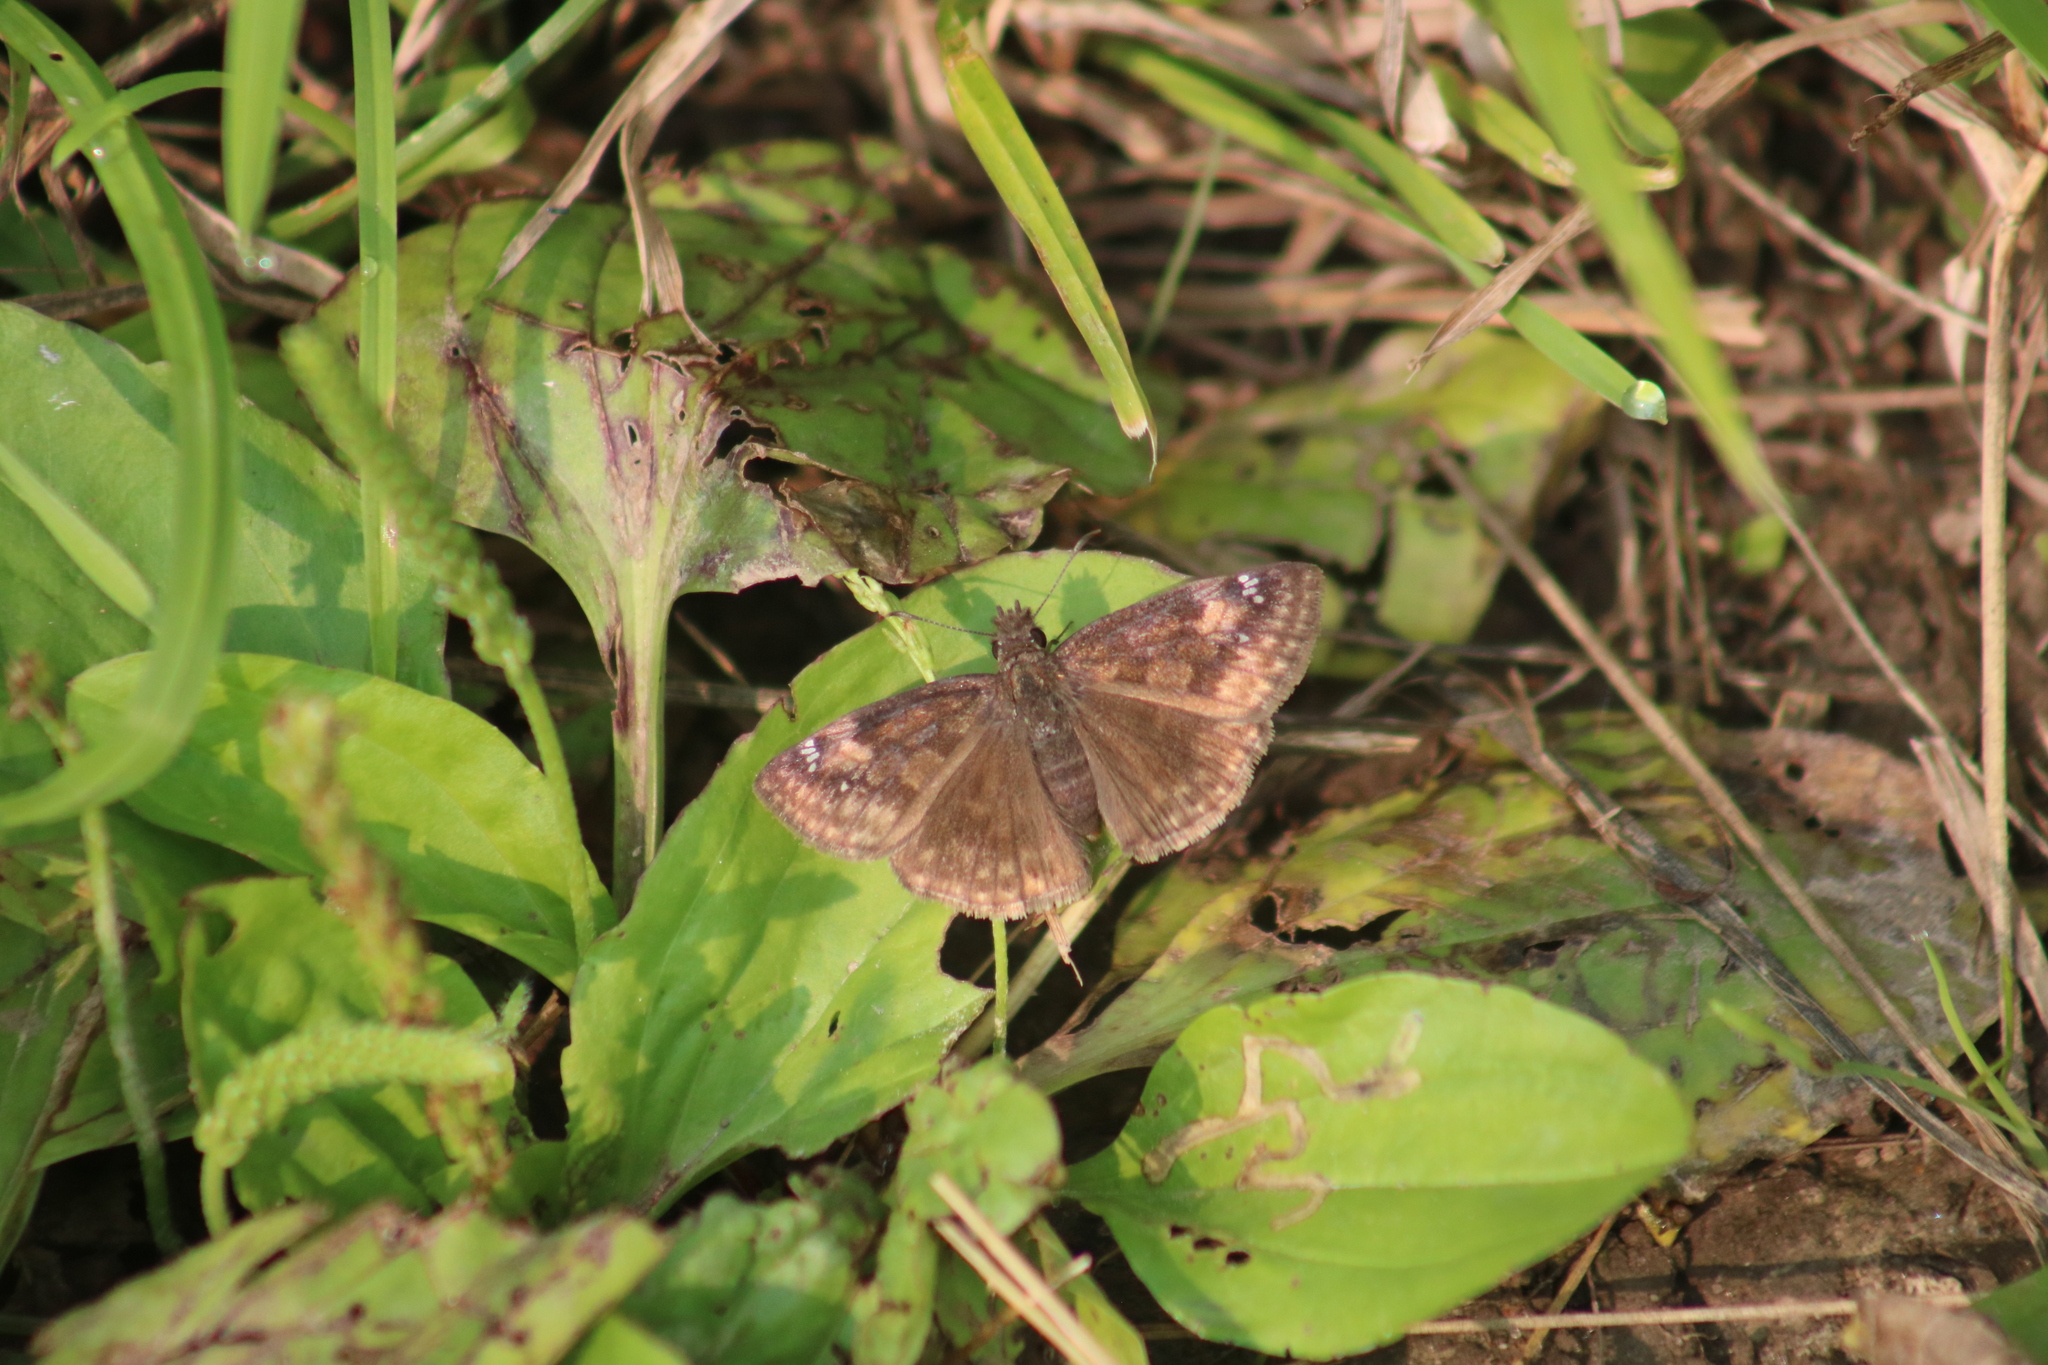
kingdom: Animalia
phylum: Arthropoda
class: Insecta
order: Lepidoptera
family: Hesperiidae
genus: Erynnis
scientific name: Erynnis baptisiae
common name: Wild indigo duskywing
